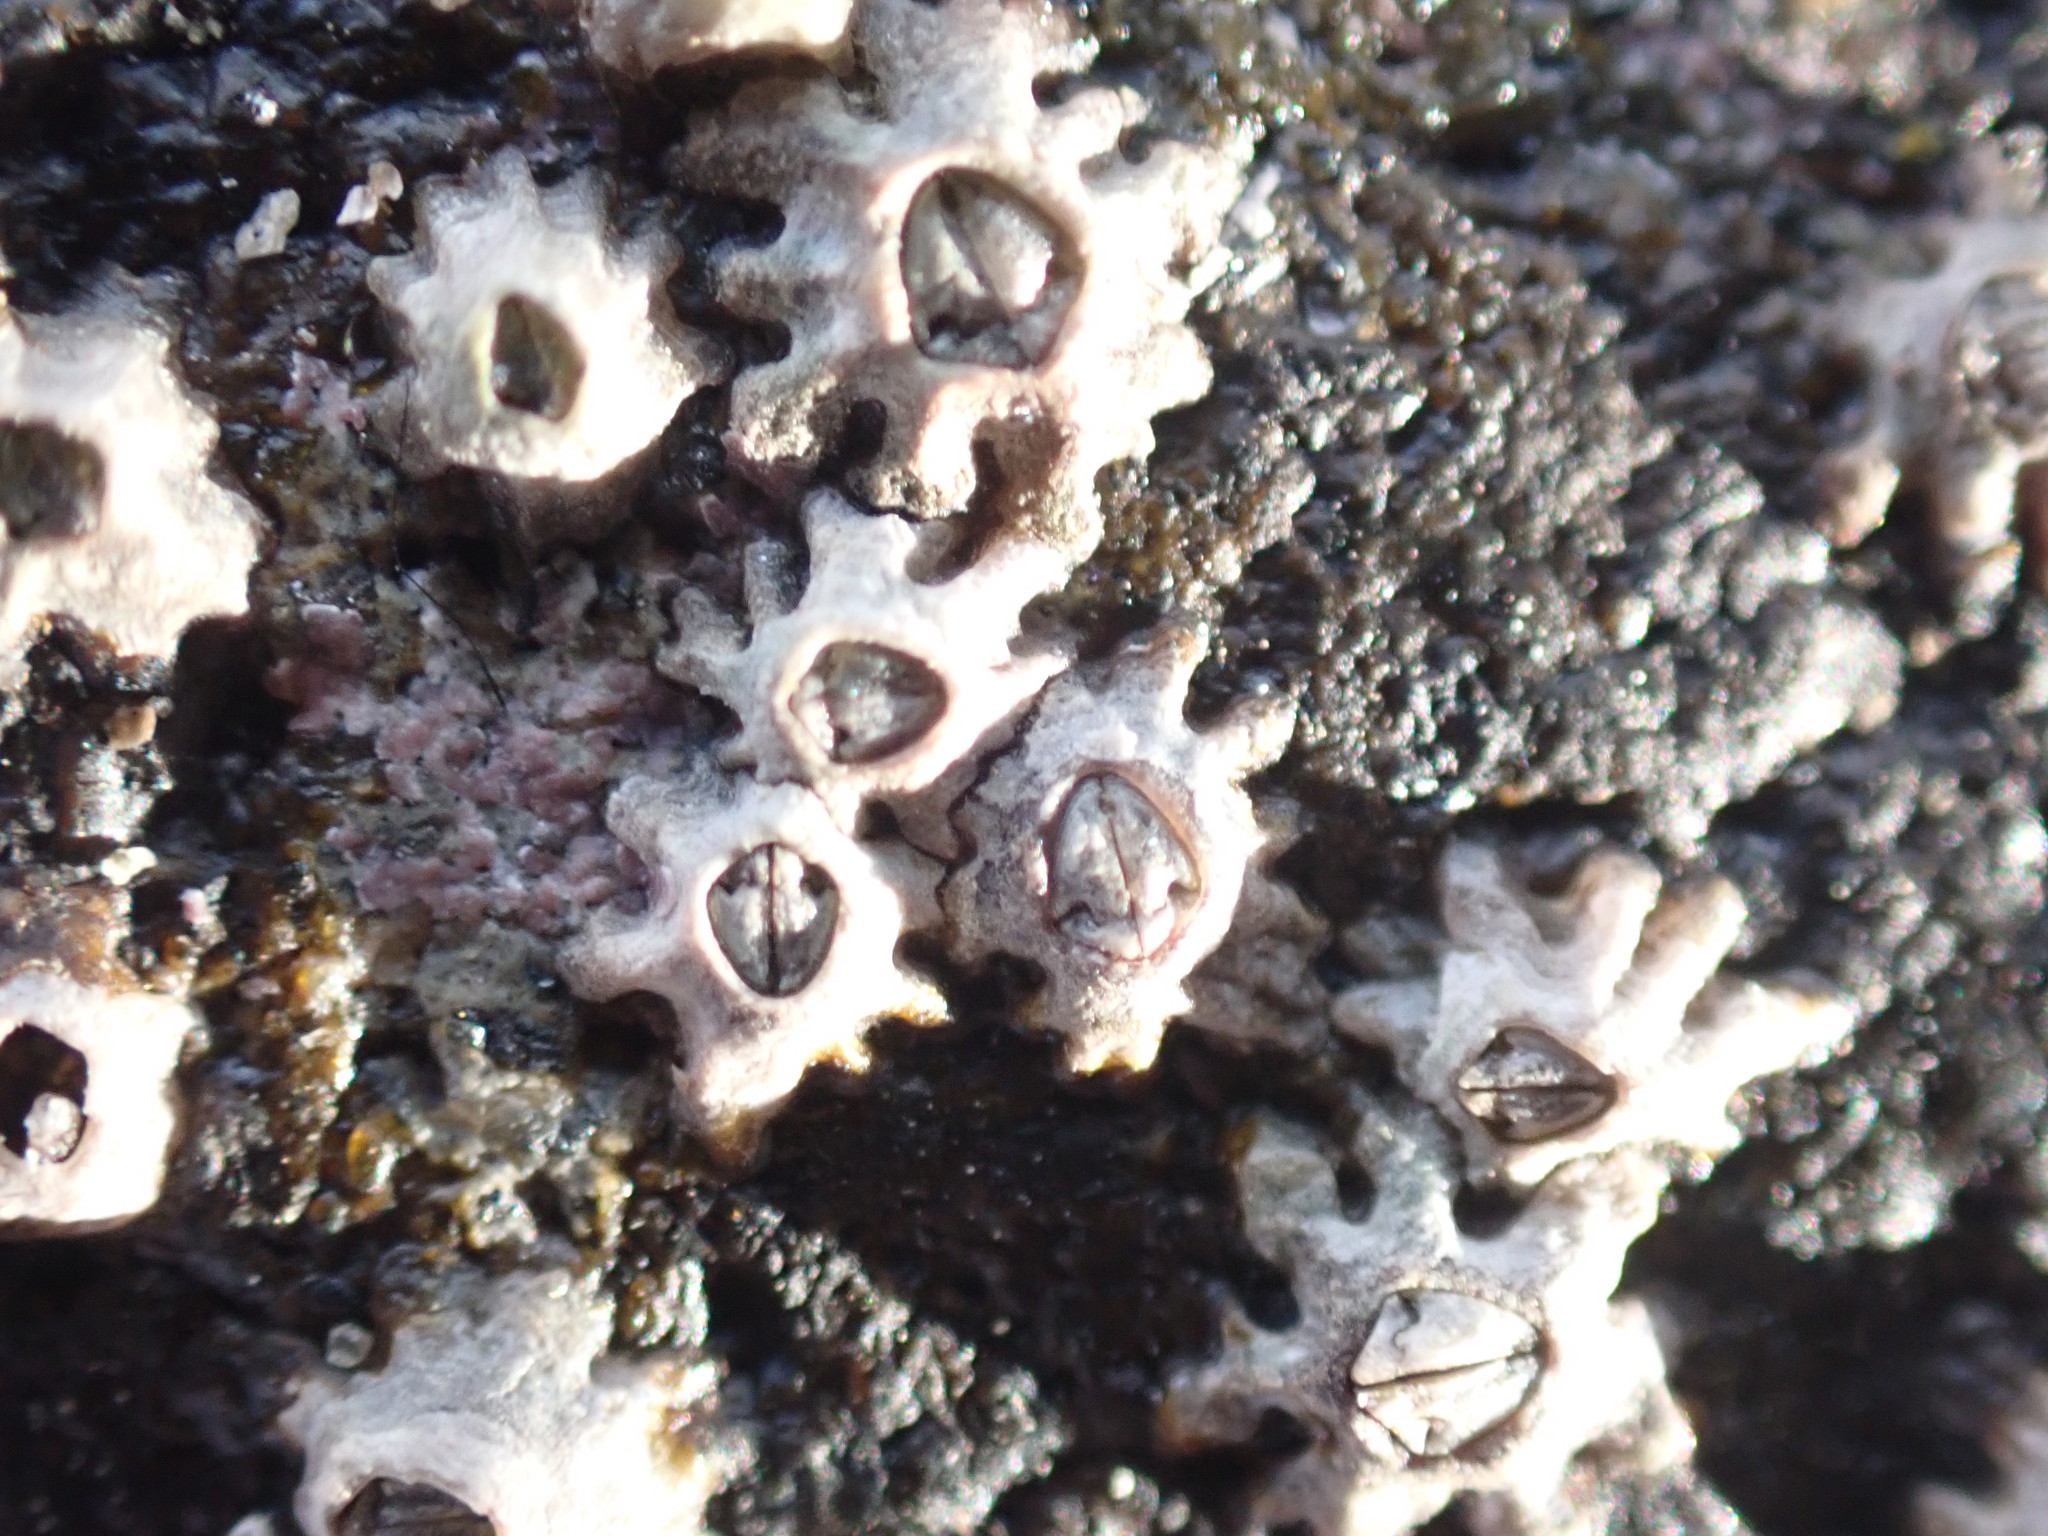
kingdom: Animalia
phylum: Arthropoda
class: Maxillopoda
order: Sessilia
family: Chthamalidae
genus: Chamaesipho
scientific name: Chamaesipho brunnea
